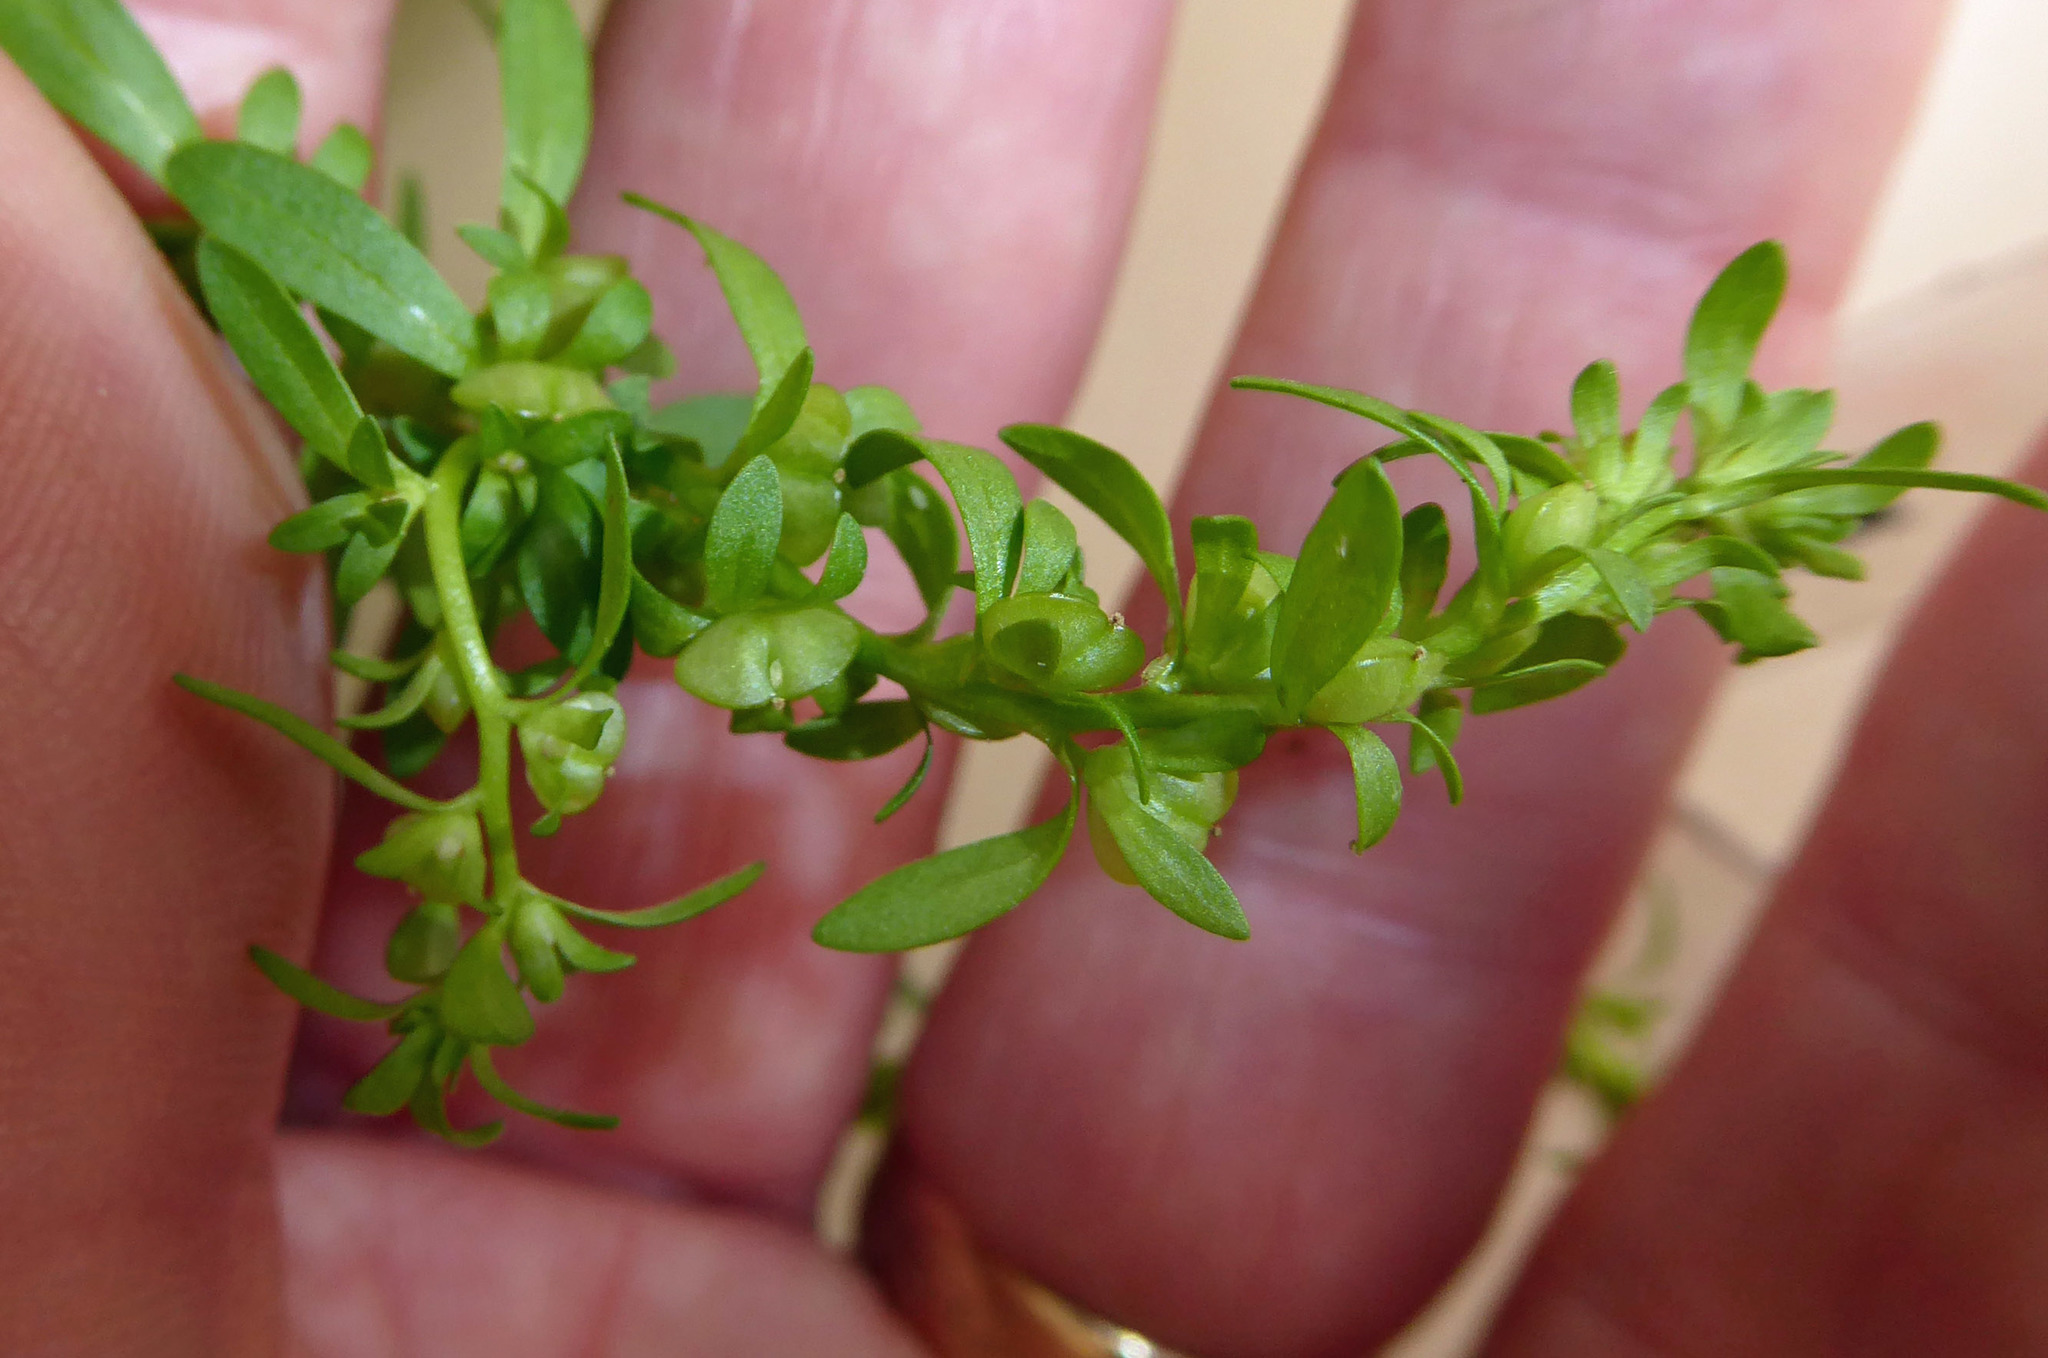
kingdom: Plantae
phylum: Tracheophyta
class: Magnoliopsida
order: Lamiales
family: Plantaginaceae
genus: Veronica
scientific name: Veronica peregrina
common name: Neckweed
